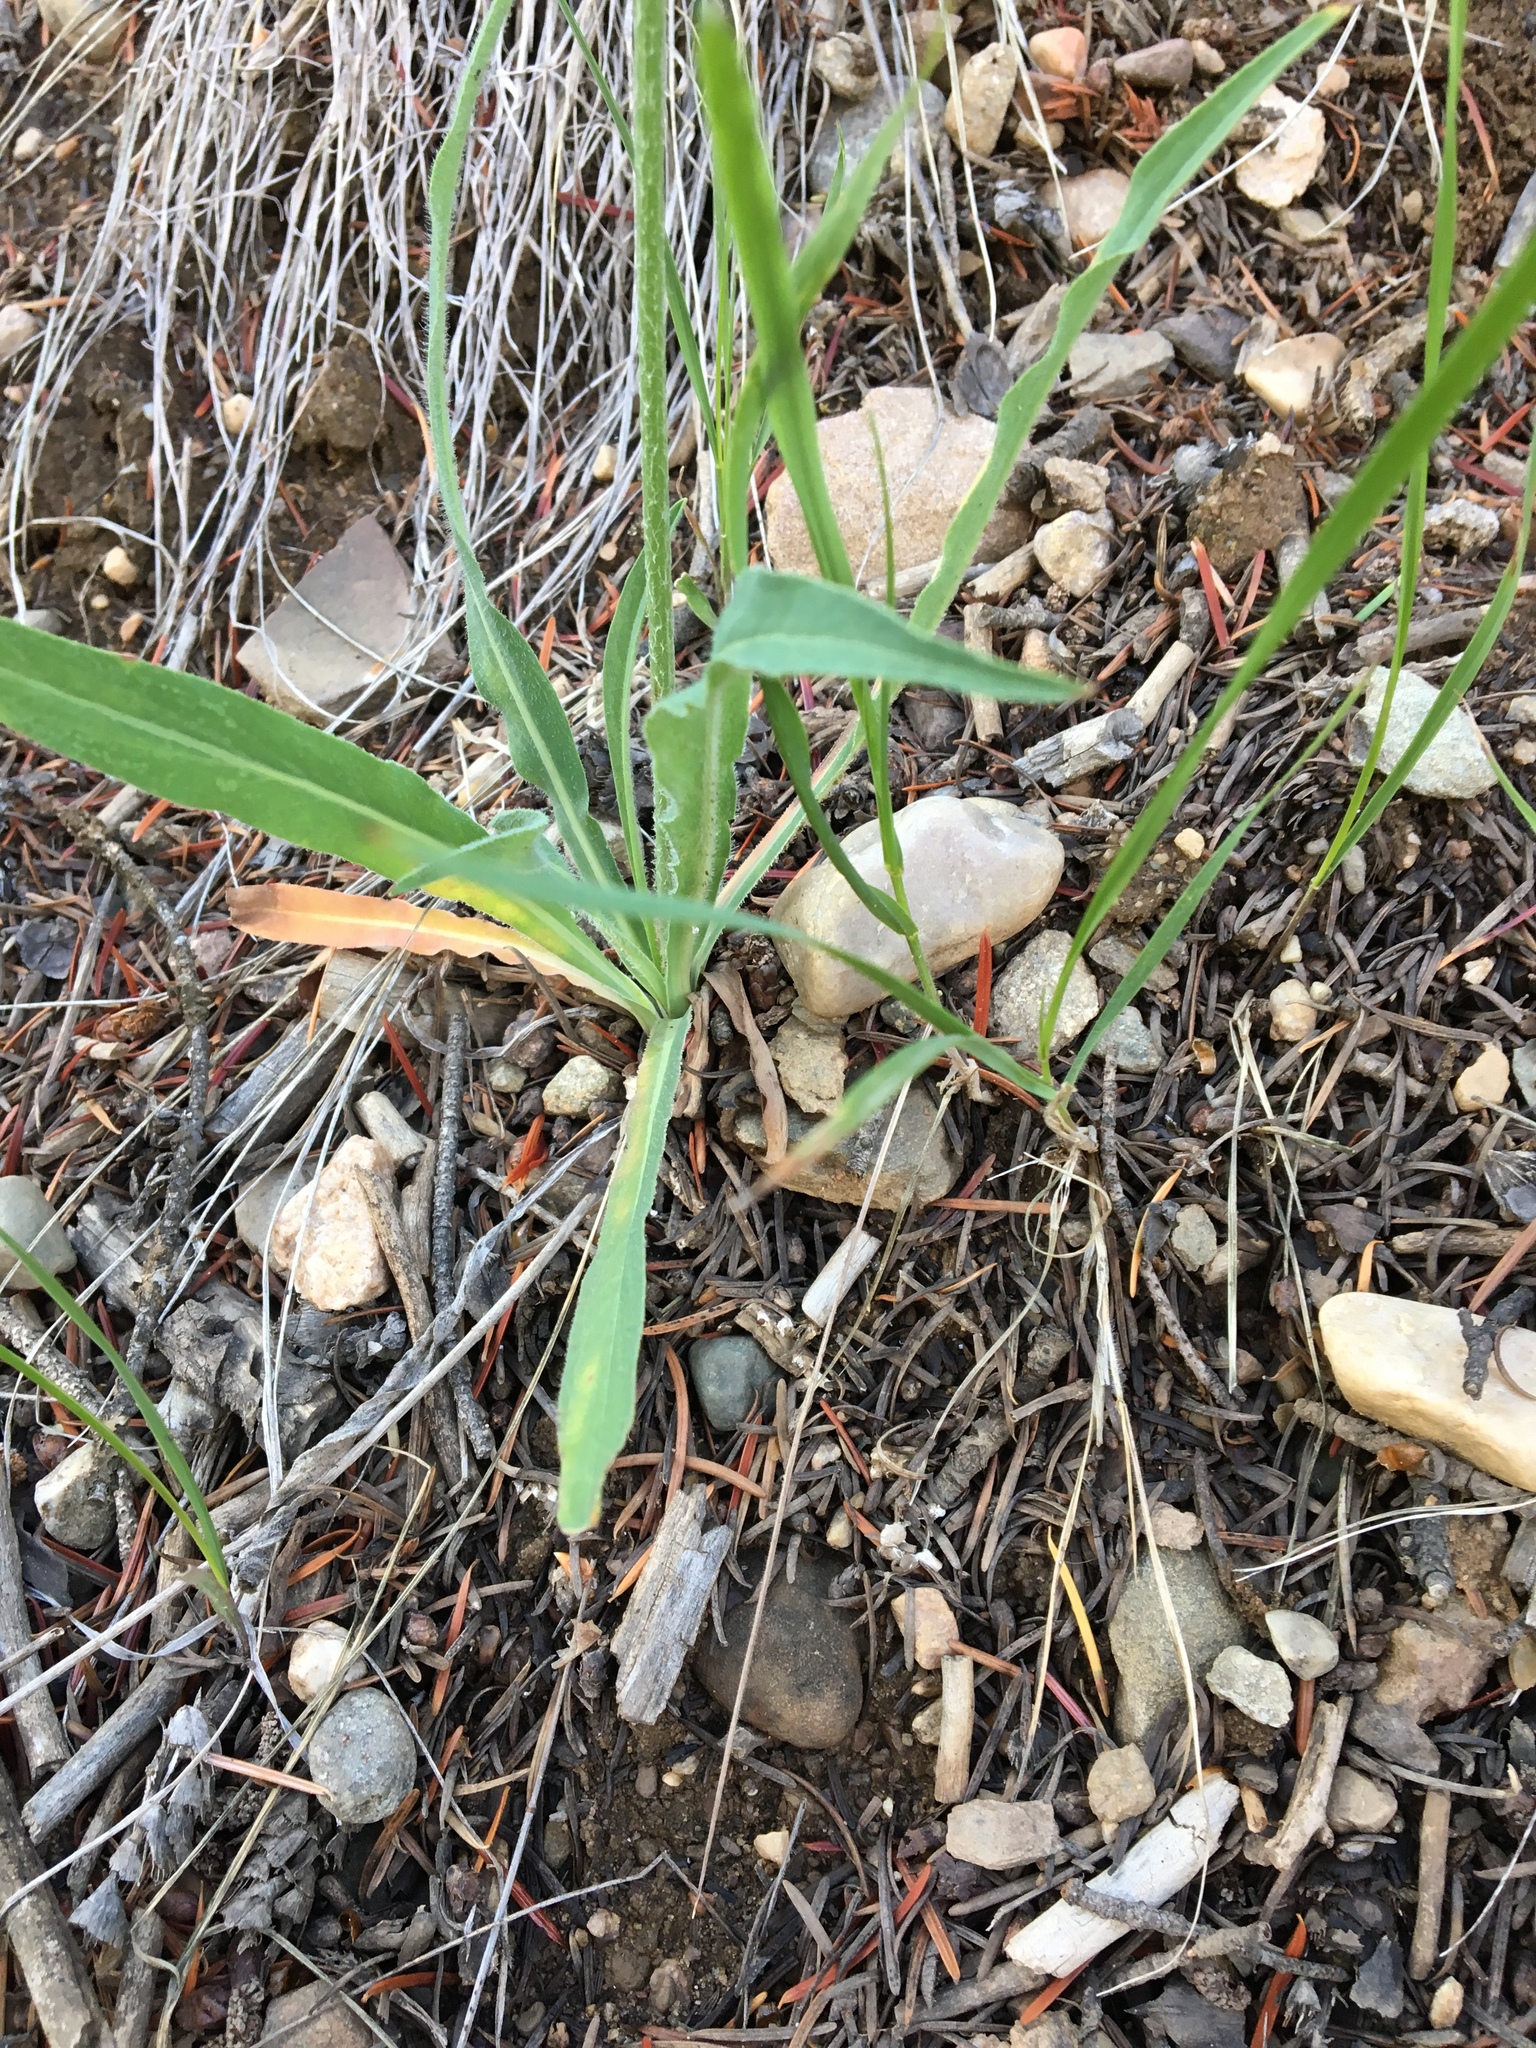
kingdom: Plantae
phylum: Tracheophyta
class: Magnoliopsida
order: Asterales
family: Asteraceae
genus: Agoseris
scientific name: Agoseris glauca
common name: Prairie agoseris
